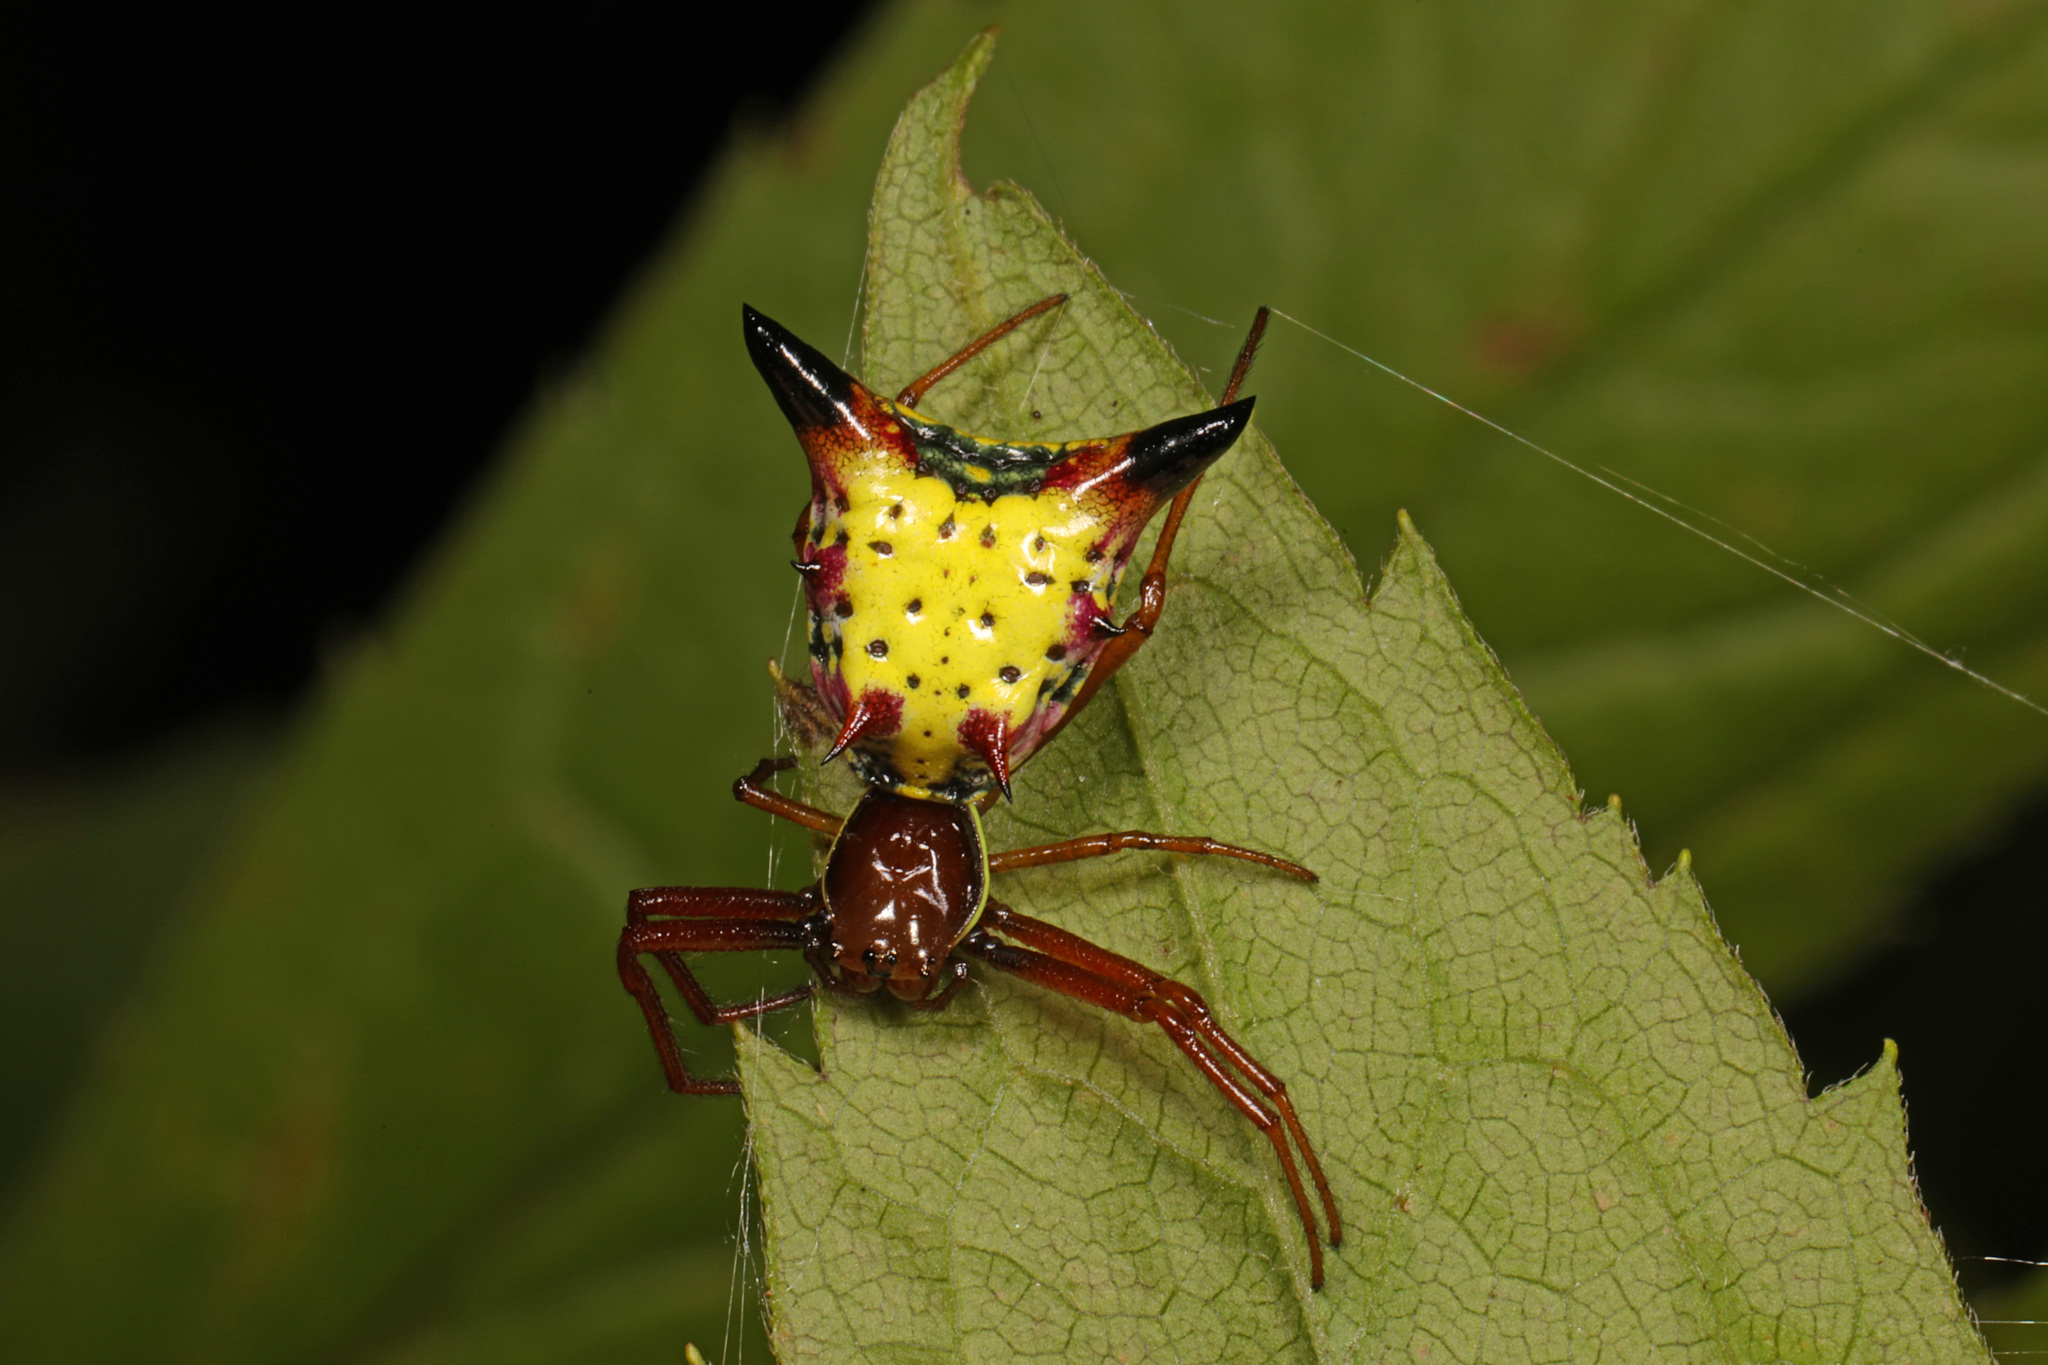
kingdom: Animalia
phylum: Arthropoda
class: Arachnida
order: Araneae
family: Araneidae
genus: Micrathena
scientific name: Micrathena sagittata
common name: Orb weavers
